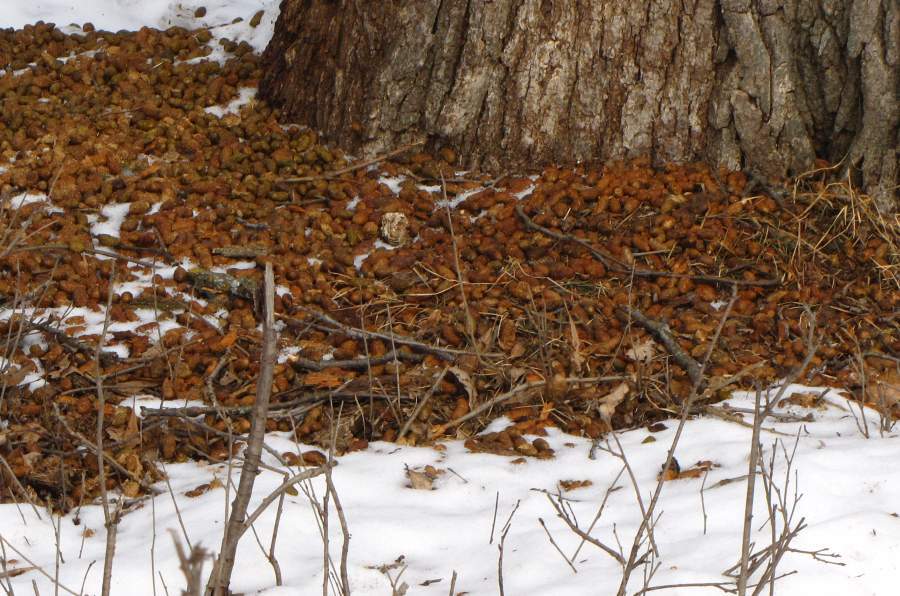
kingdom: Animalia
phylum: Chordata
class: Mammalia
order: Rodentia
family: Erethizontidae
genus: Erethizon
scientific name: Erethizon dorsatus
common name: North american porcupine
